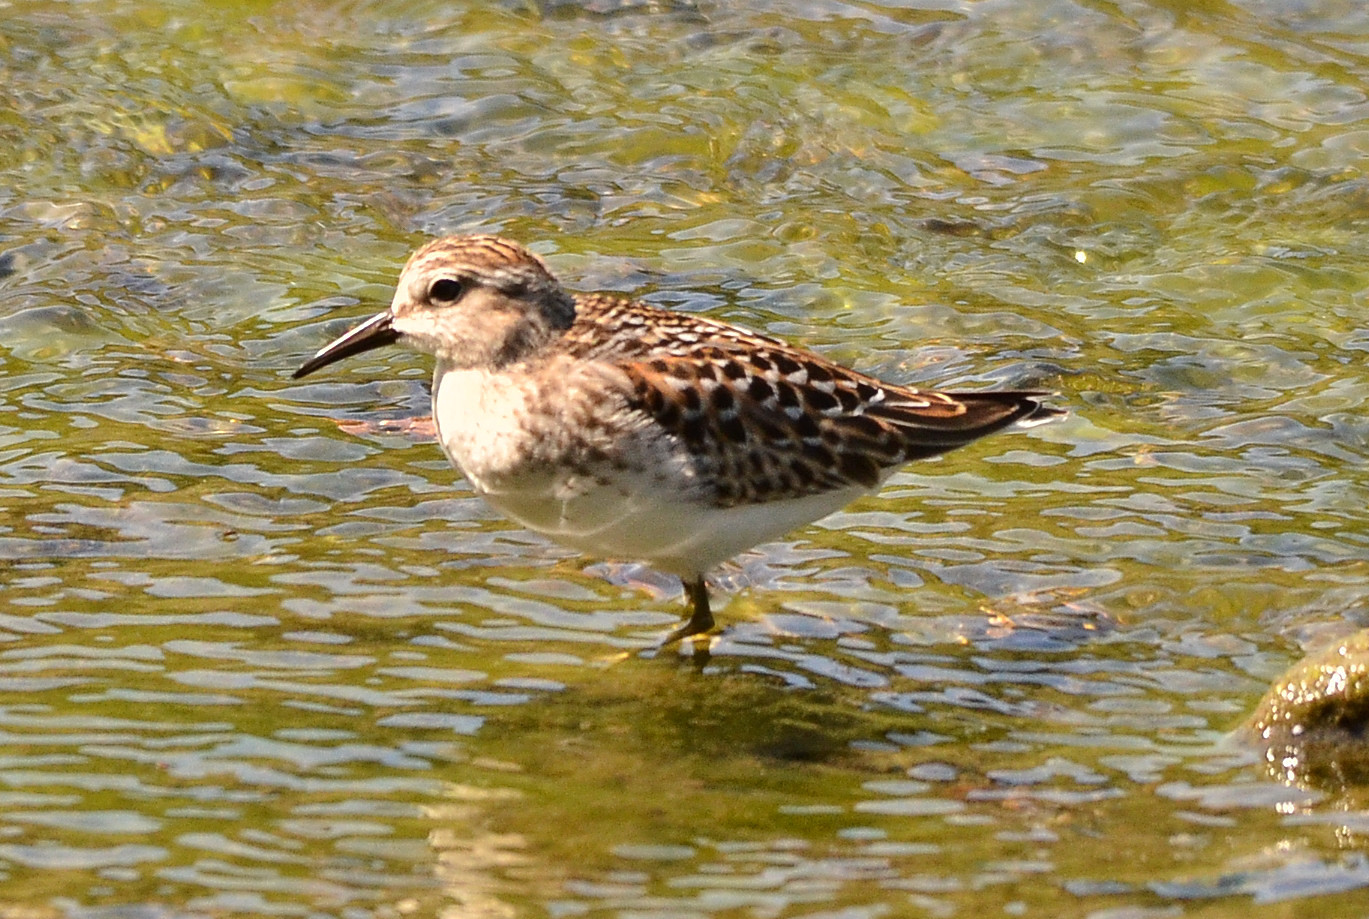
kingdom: Animalia
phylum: Chordata
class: Aves
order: Charadriiformes
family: Scolopacidae
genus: Calidris
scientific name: Calidris minutilla
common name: Least sandpiper
